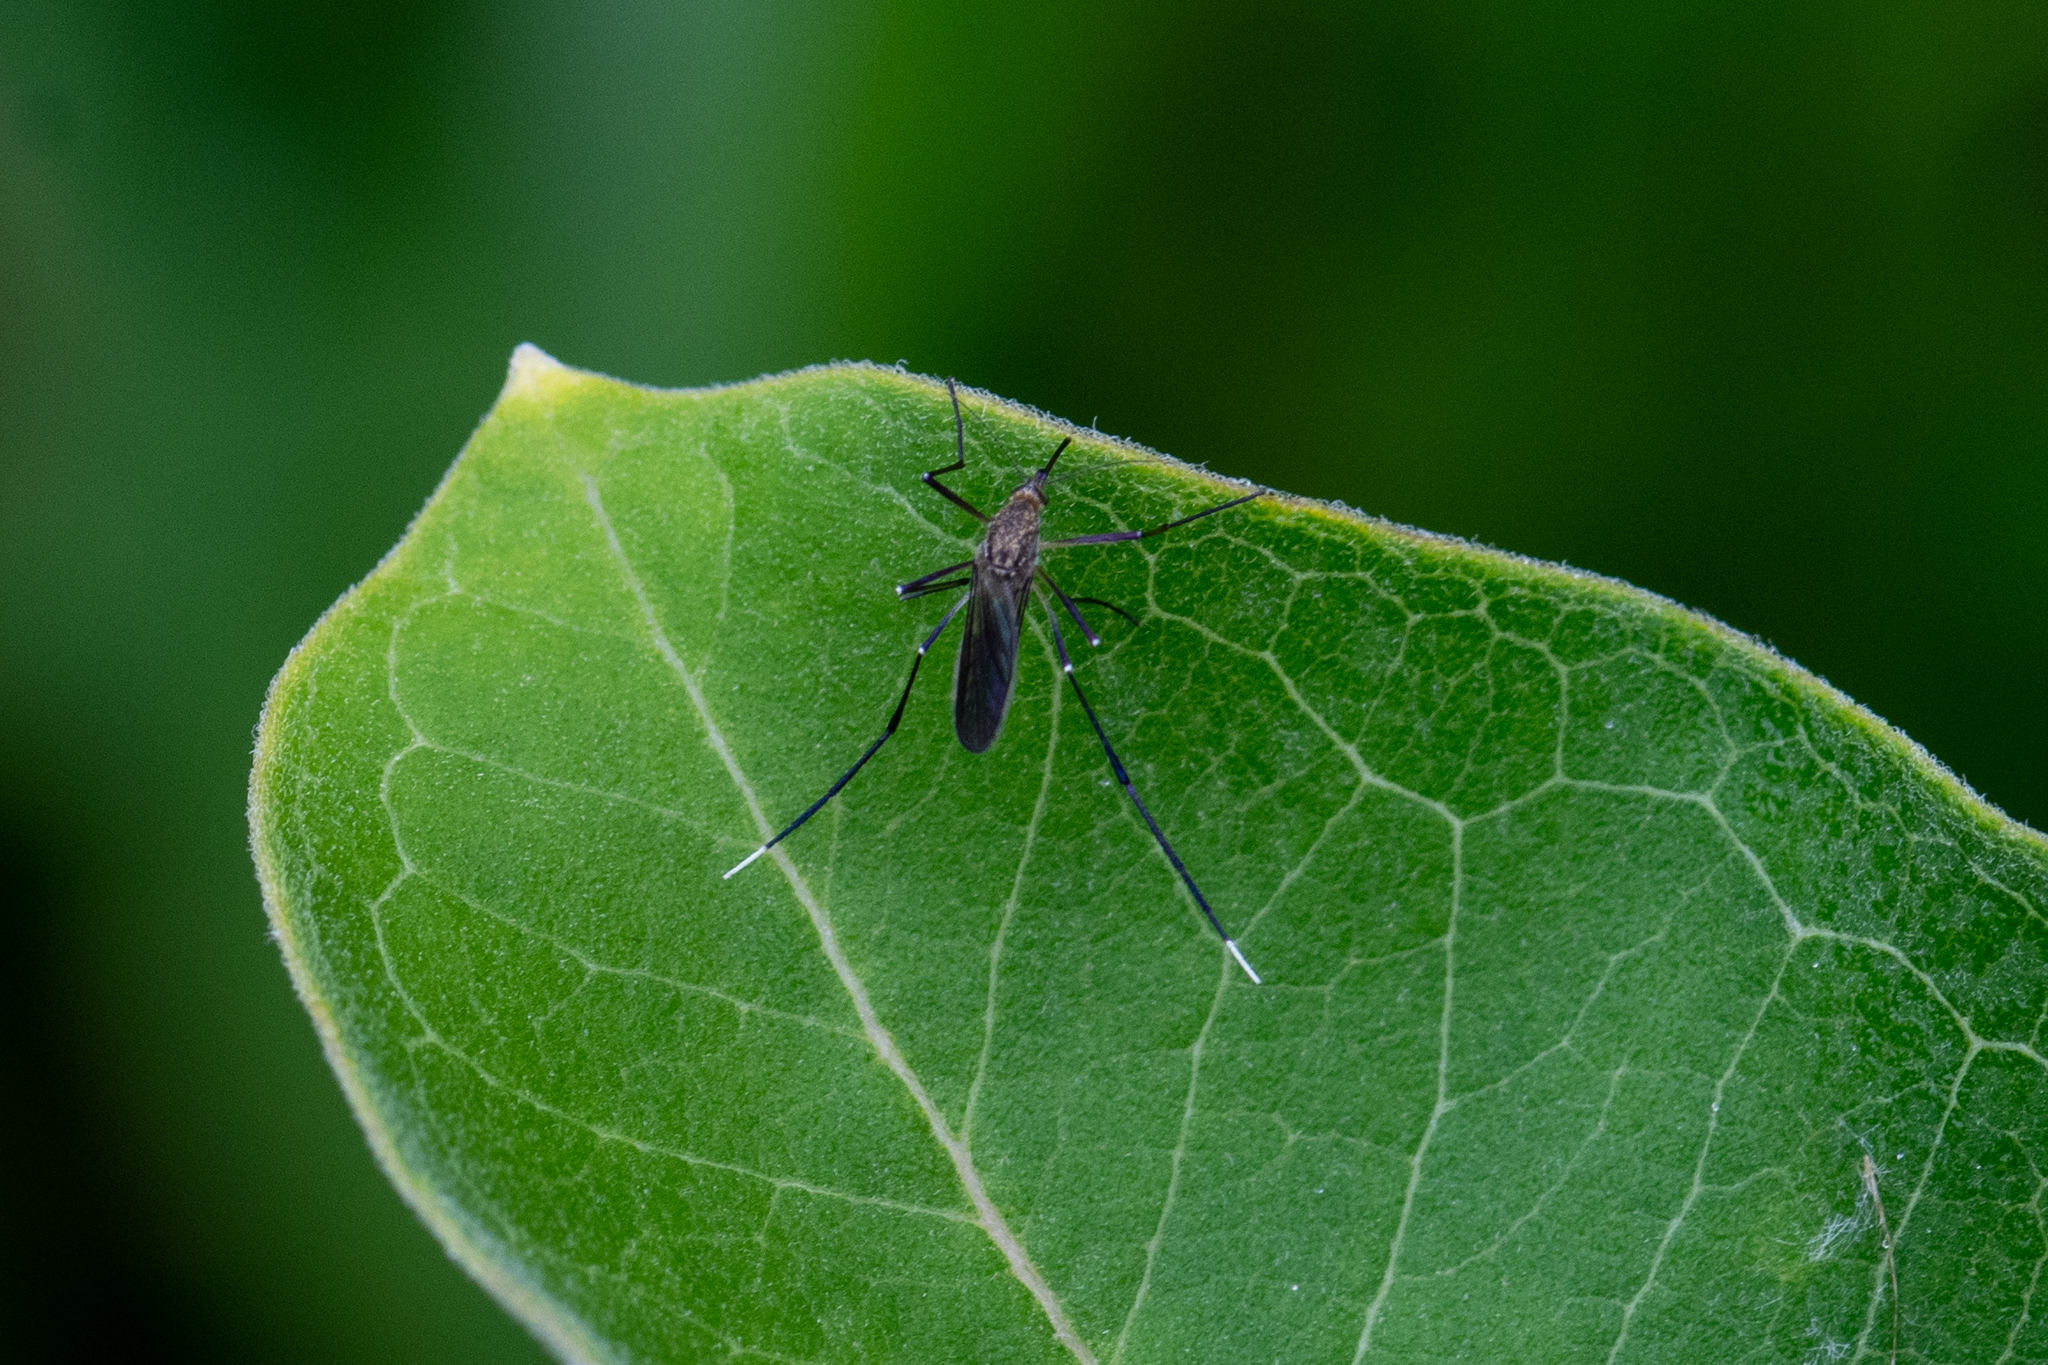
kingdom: Animalia
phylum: Arthropoda
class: Insecta
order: Diptera
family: Culicidae
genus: Psorophora
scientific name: Psorophora ferox
